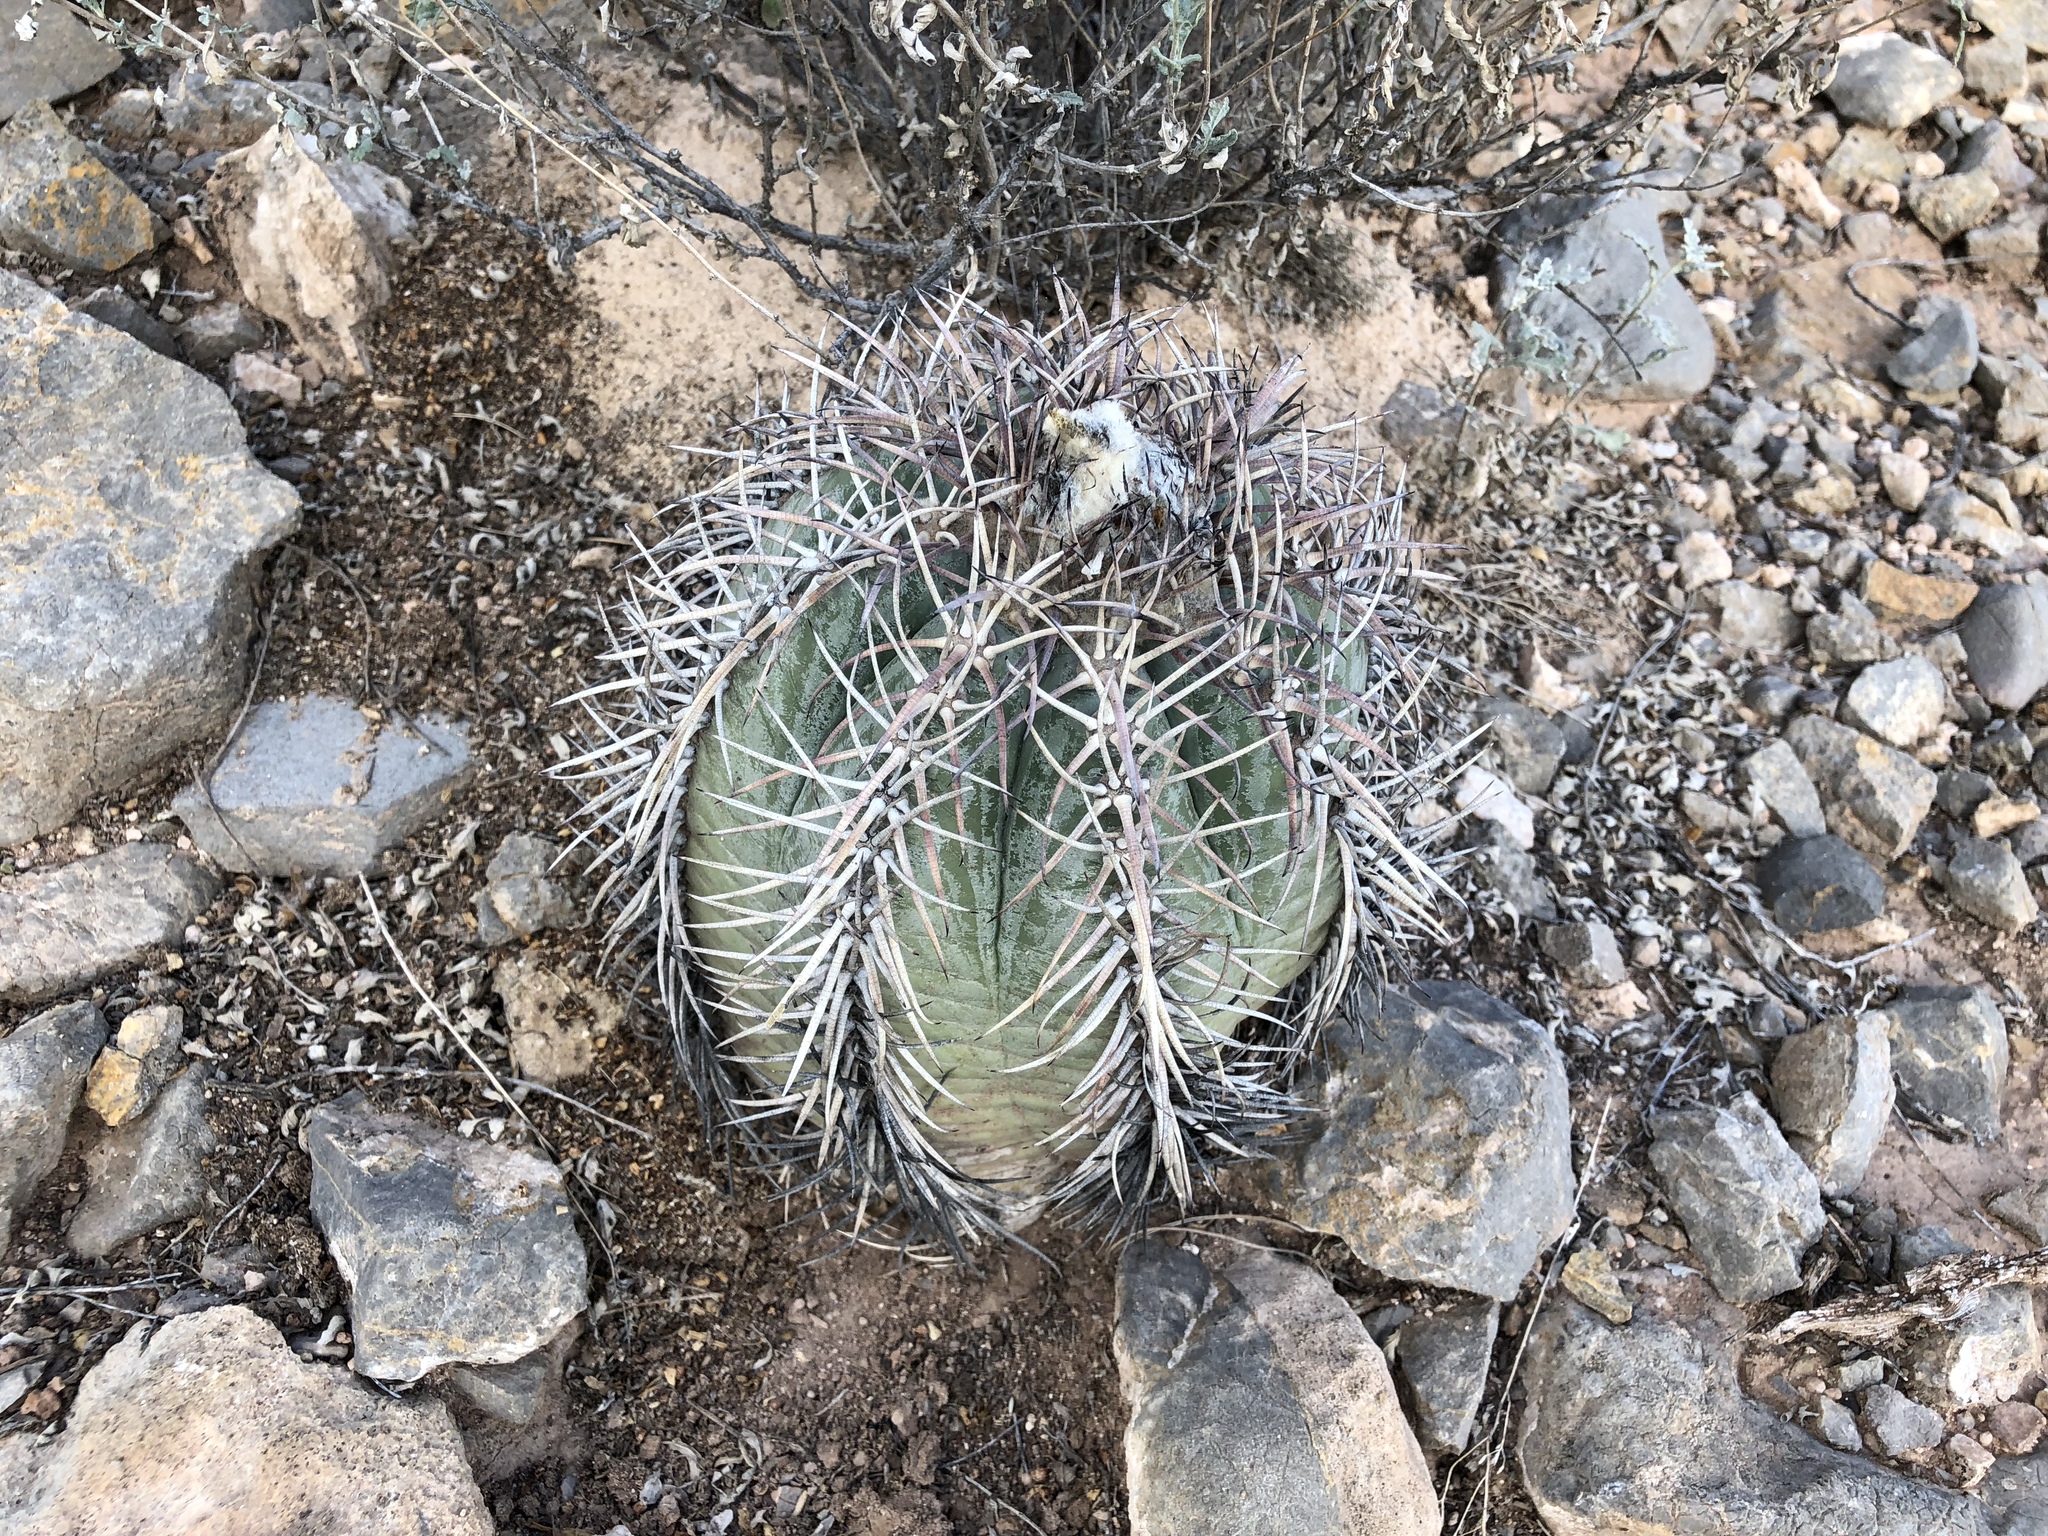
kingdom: Plantae
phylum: Tracheophyta
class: Magnoliopsida
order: Caryophyllales
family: Cactaceae
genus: Echinocactus
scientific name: Echinocactus horizonthalonius
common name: Devilshead
